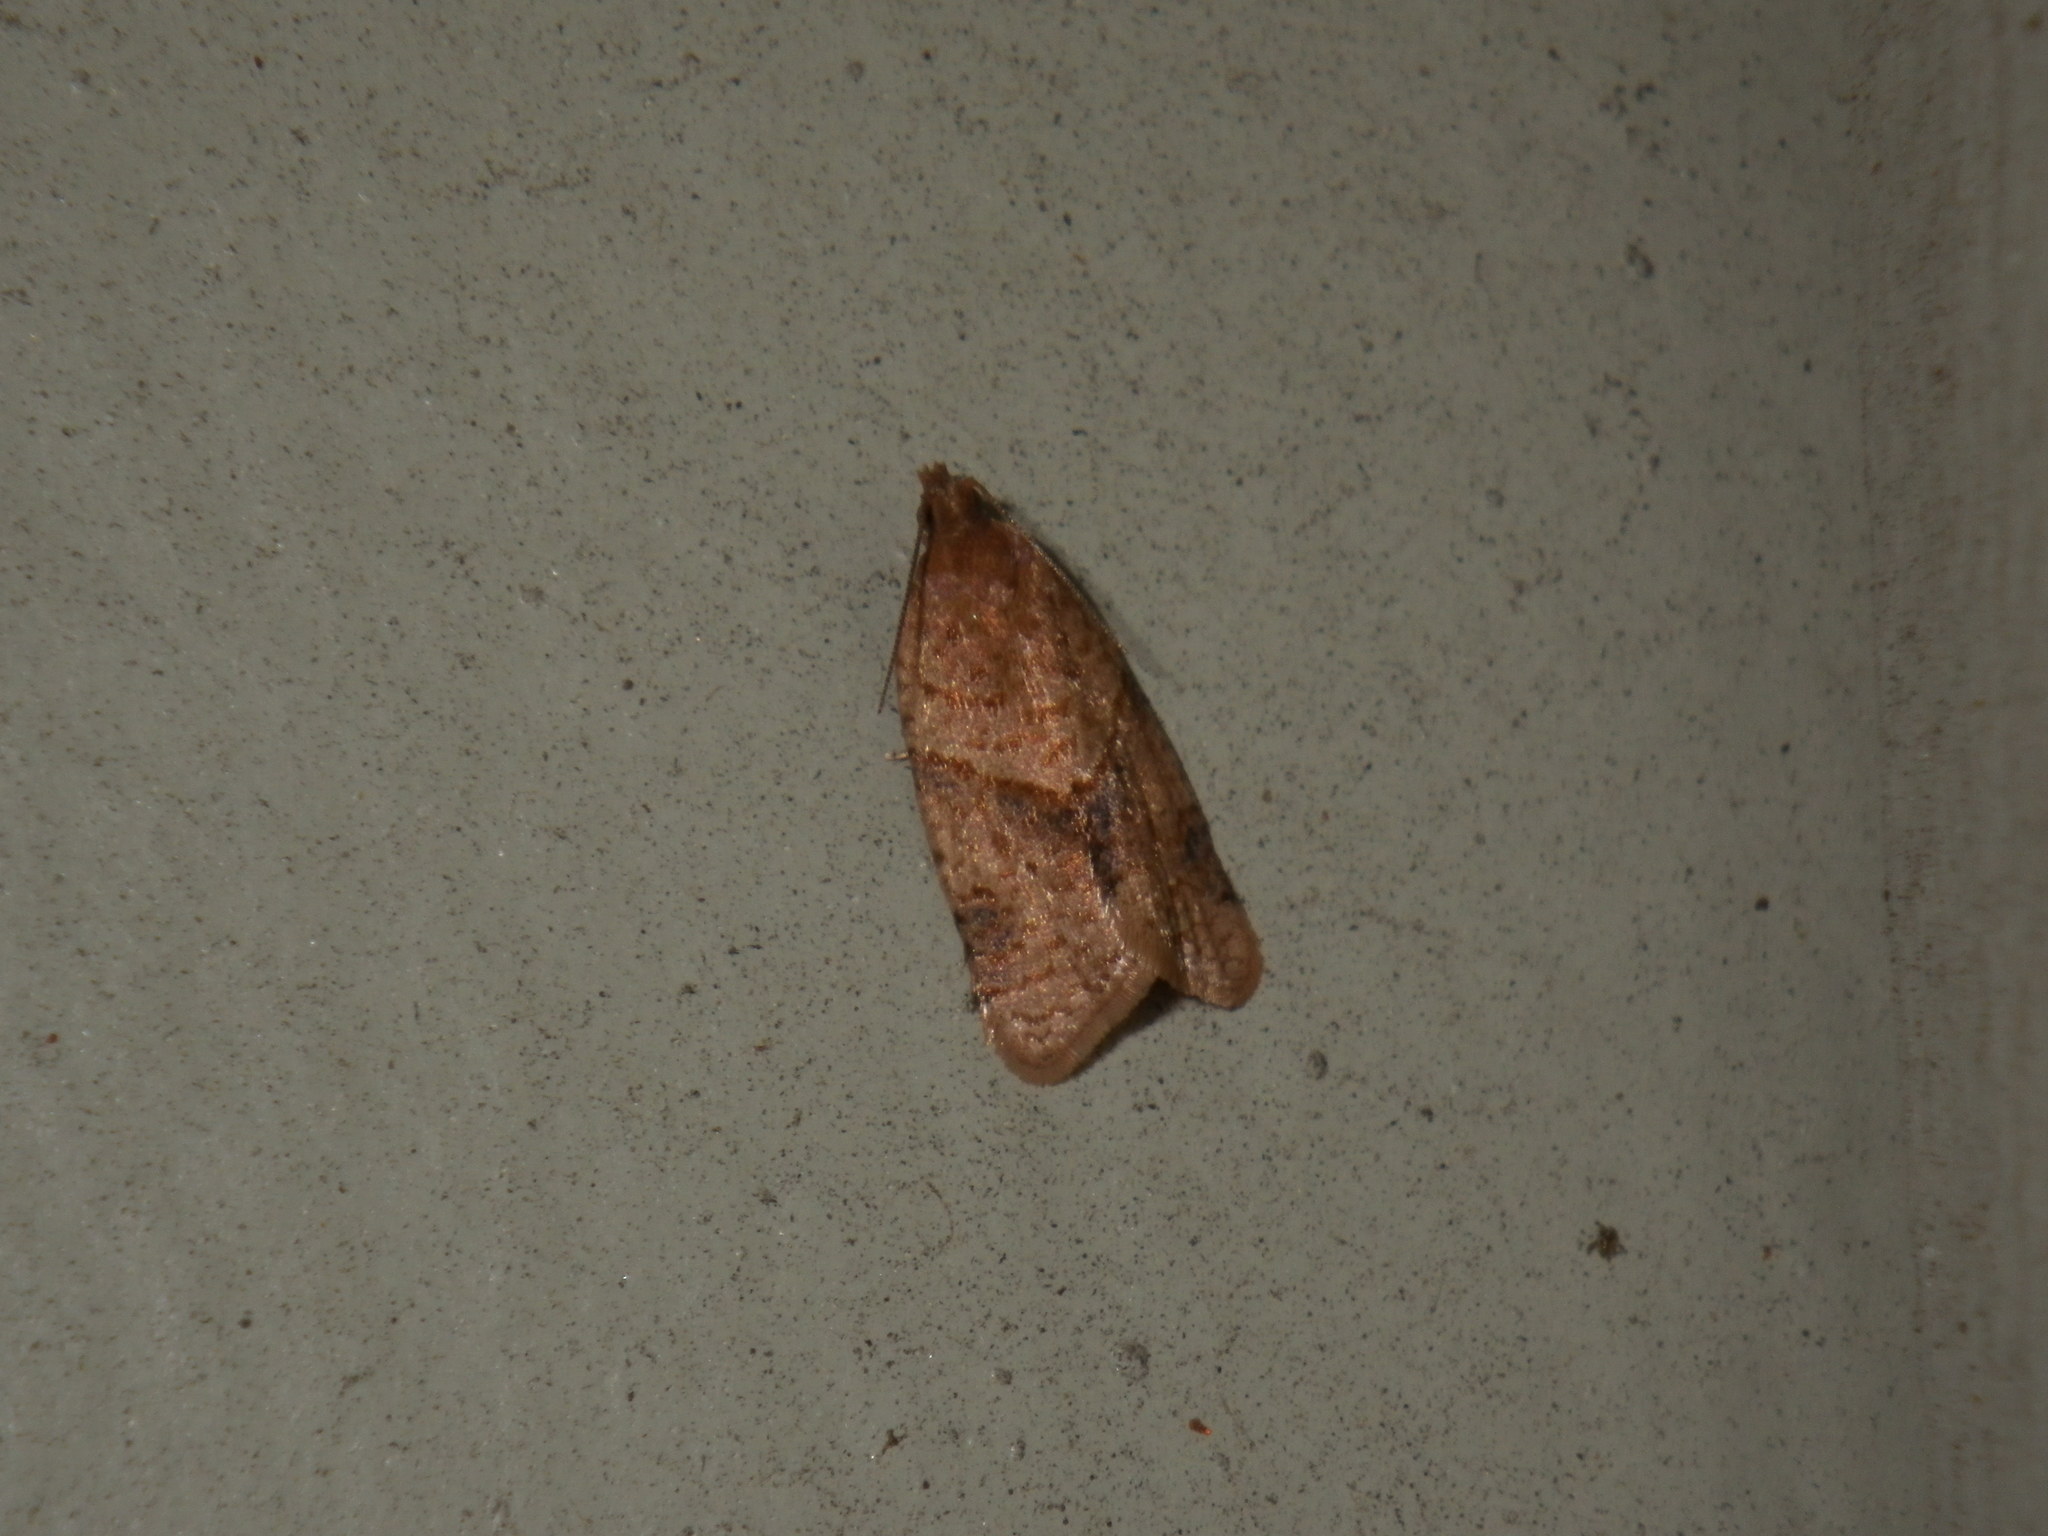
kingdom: Animalia
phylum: Arthropoda
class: Insecta
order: Lepidoptera
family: Tortricidae
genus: Clepsis
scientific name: Clepsis peritana
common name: Garden tortrix
